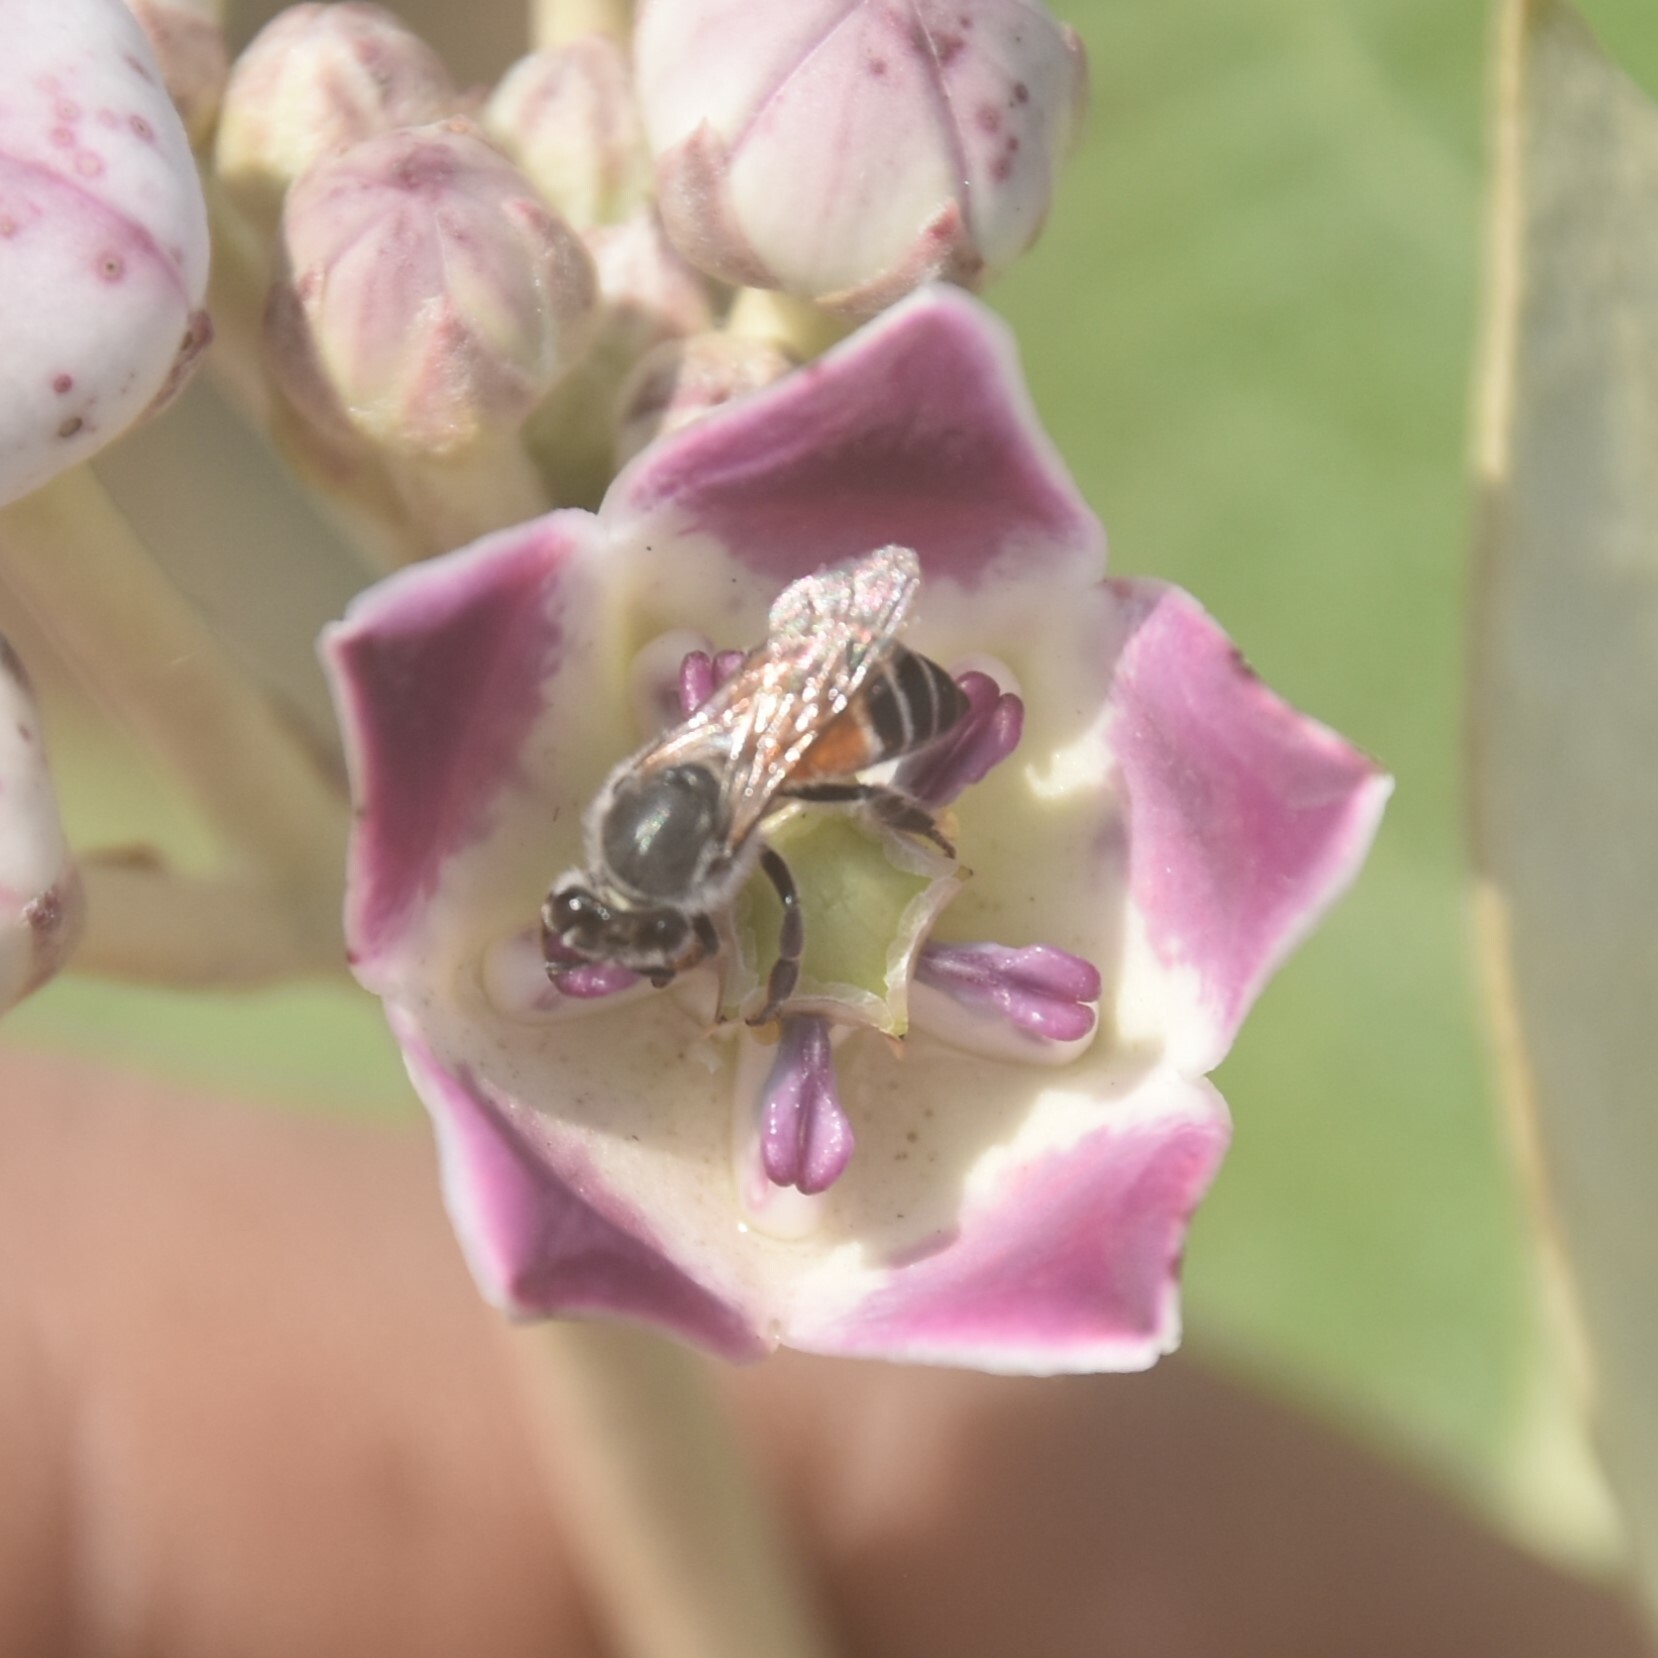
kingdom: Animalia
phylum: Arthropoda
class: Insecta
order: Hymenoptera
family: Apidae
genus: Apis
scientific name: Apis florea
